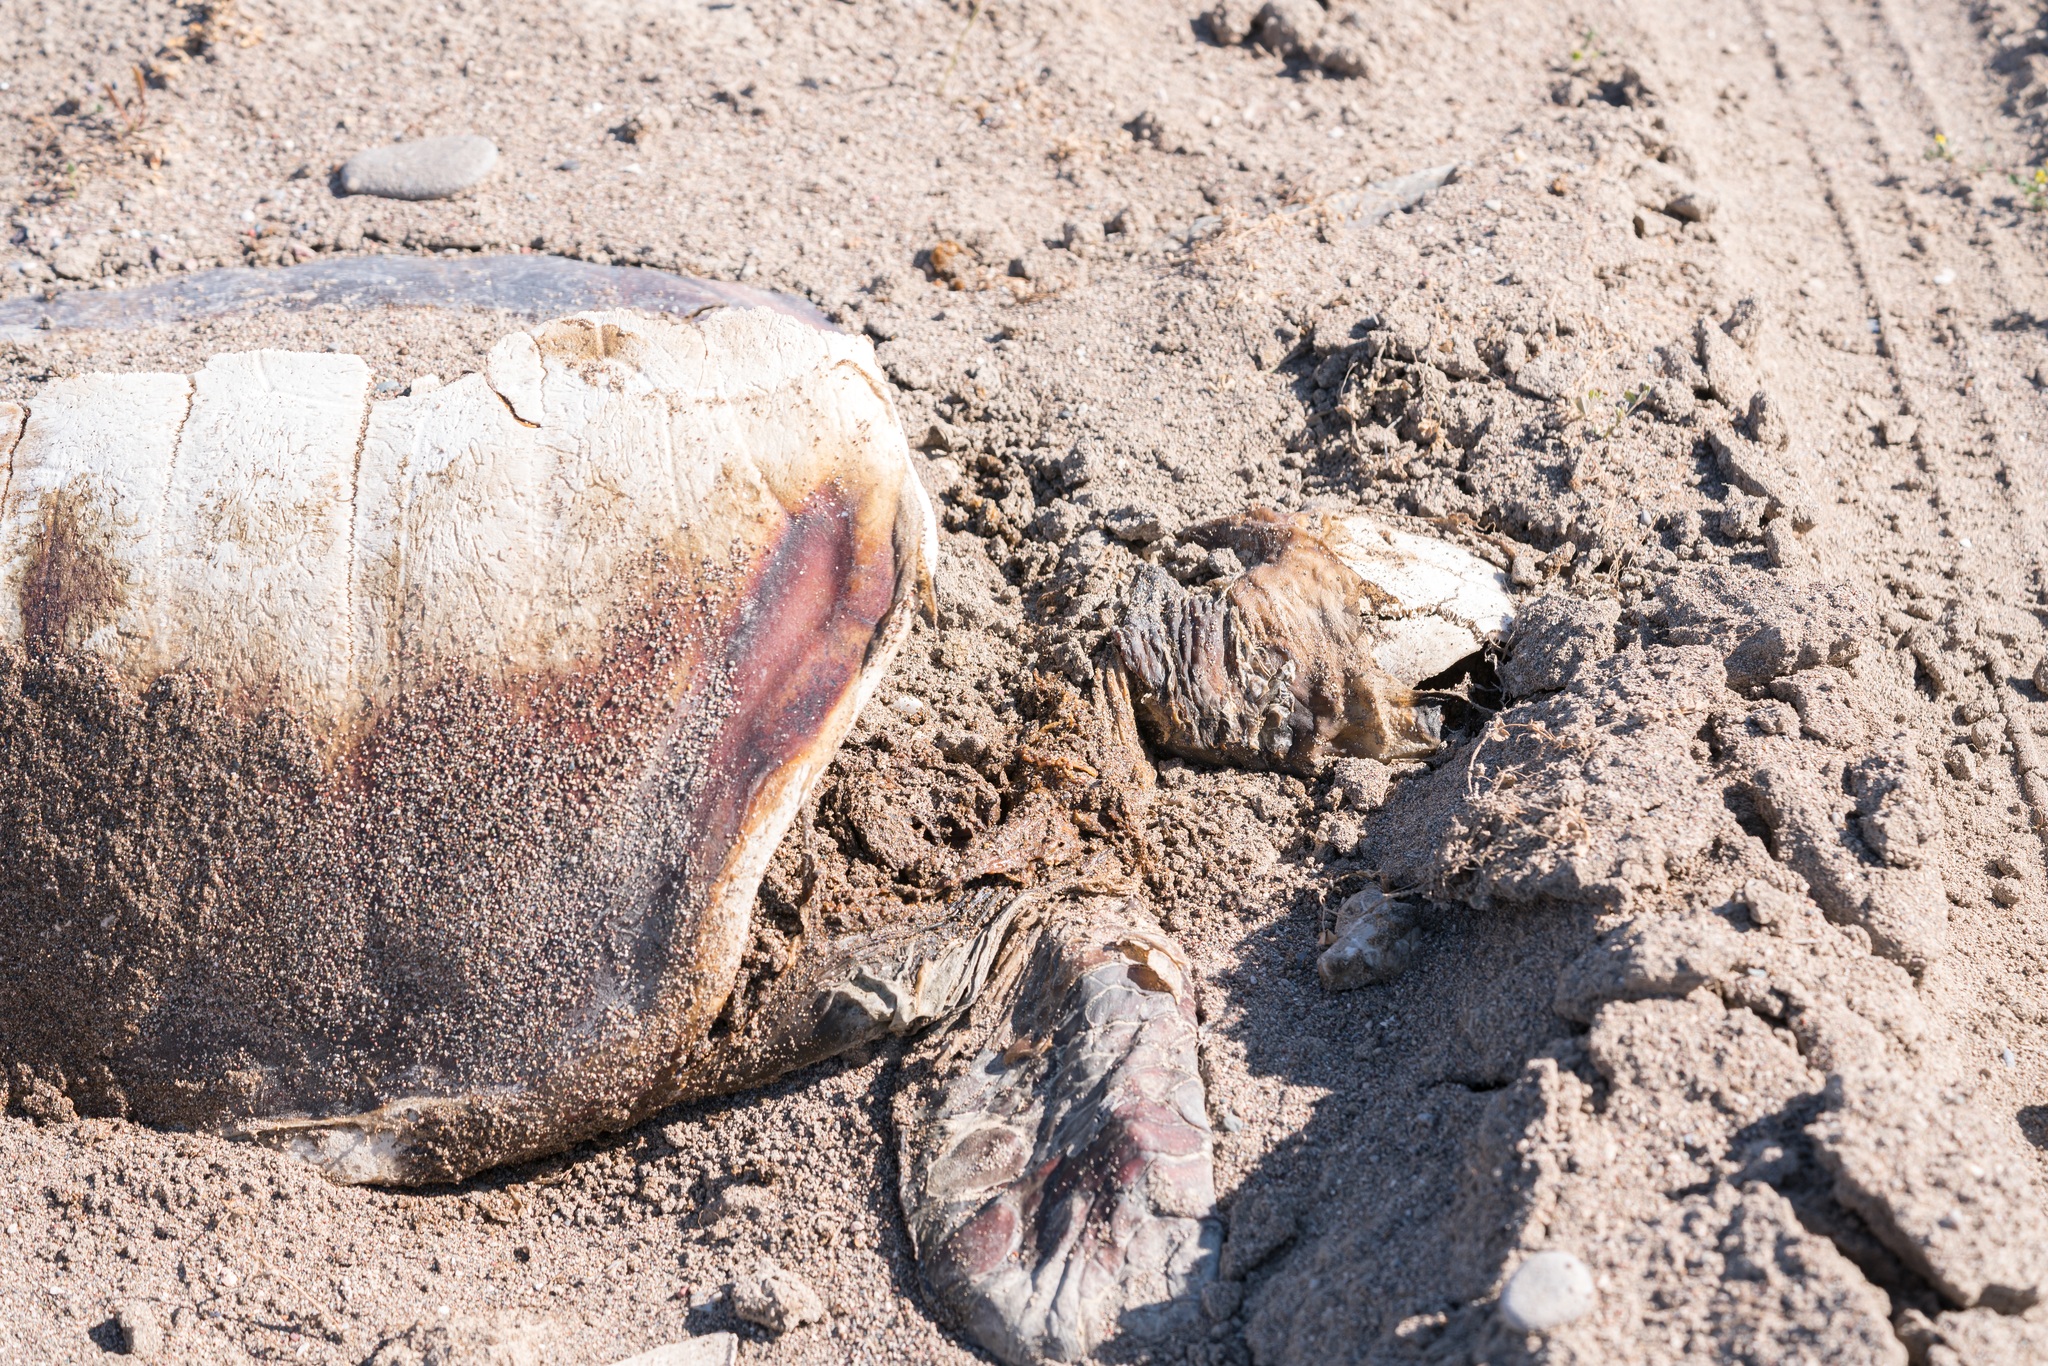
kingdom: Animalia
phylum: Chordata
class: Testudines
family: Cheloniidae
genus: Caretta
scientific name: Caretta caretta
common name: Loggerhead sea turtle
